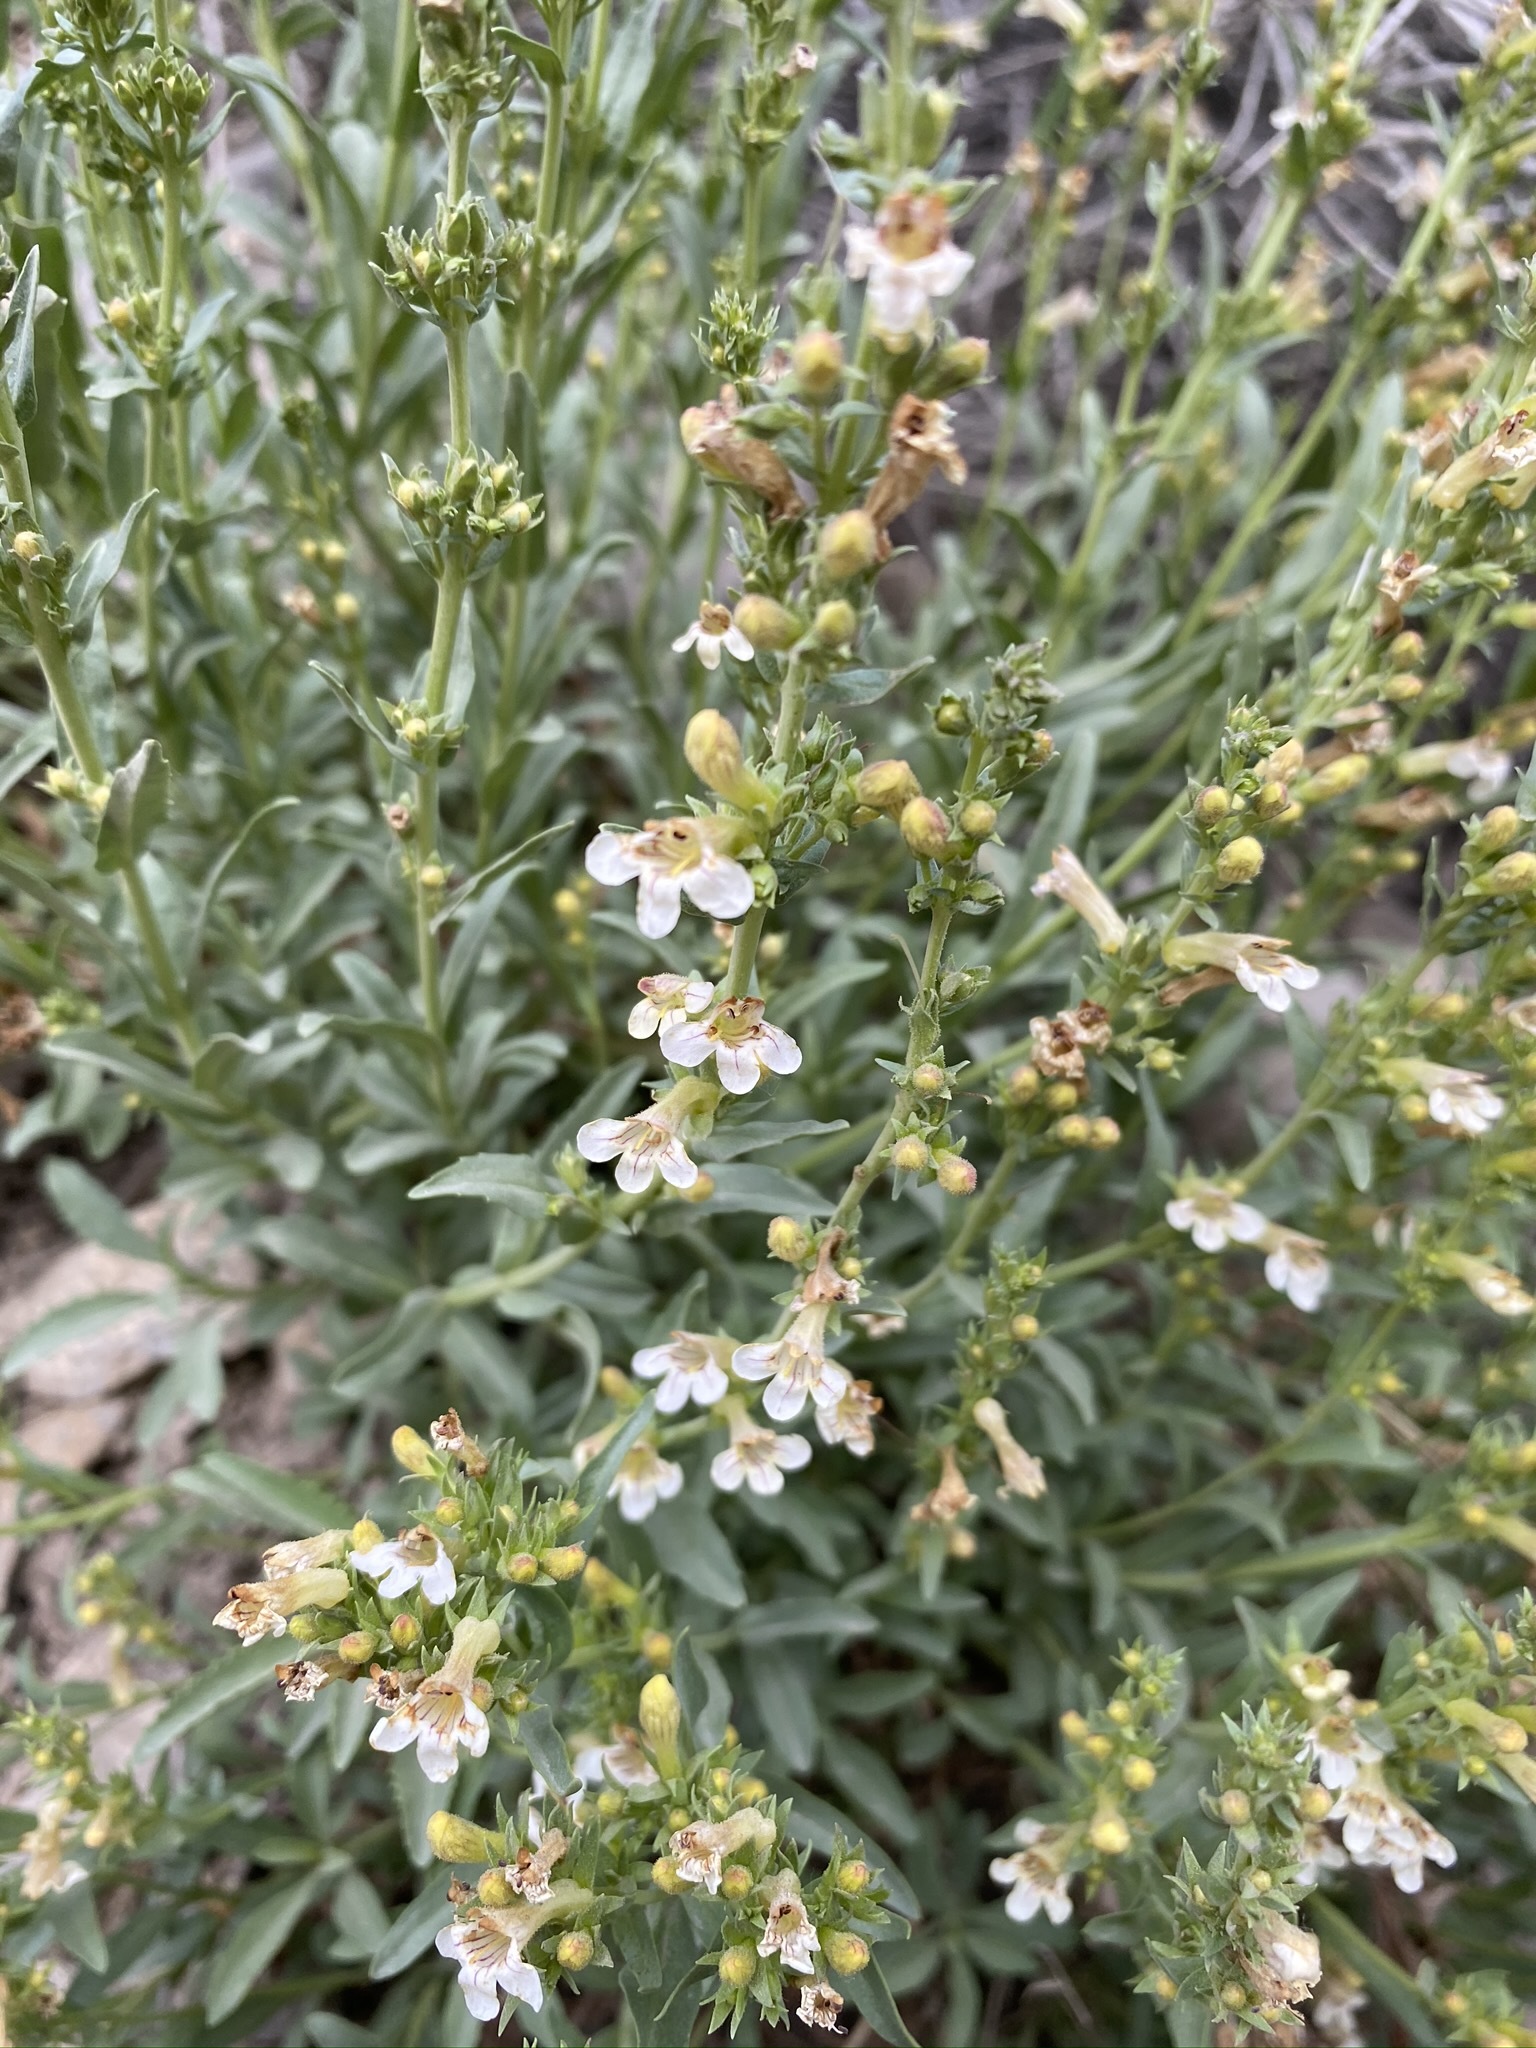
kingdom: Plantae
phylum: Tracheophyta
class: Magnoliopsida
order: Lamiales
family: Plantaginaceae
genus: Penstemon
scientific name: Penstemon deustus
